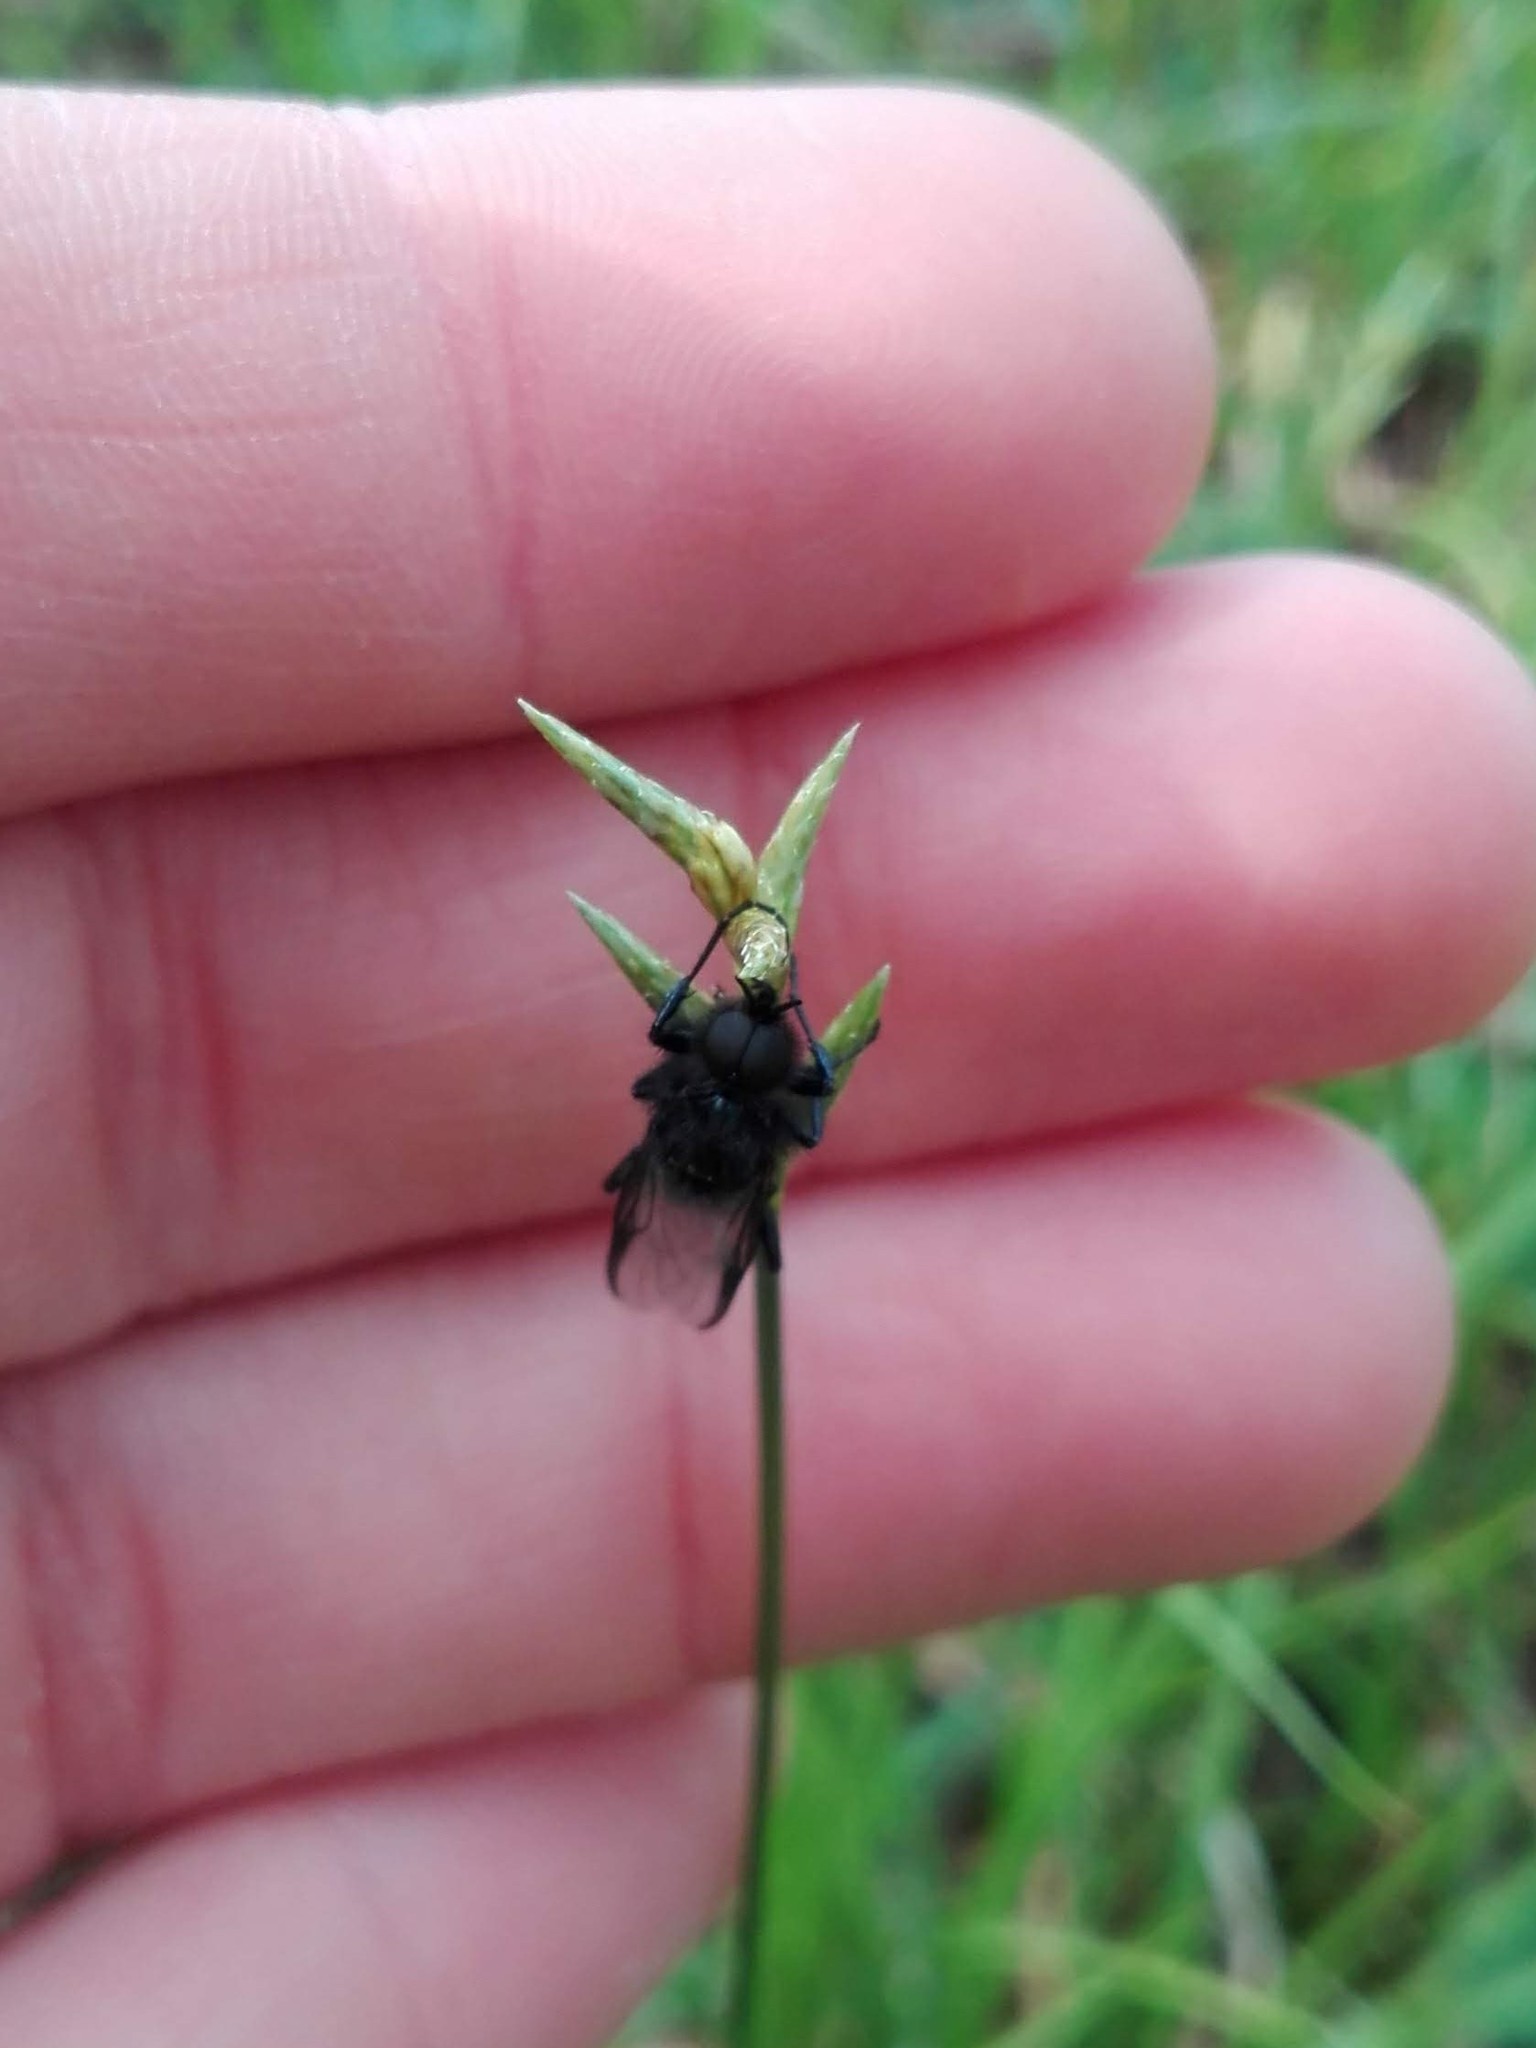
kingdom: Plantae
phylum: Tracheophyta
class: Liliopsida
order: Poales
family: Cyperaceae
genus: Carex
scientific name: Carex brizoides
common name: Quaking-grass sedge
